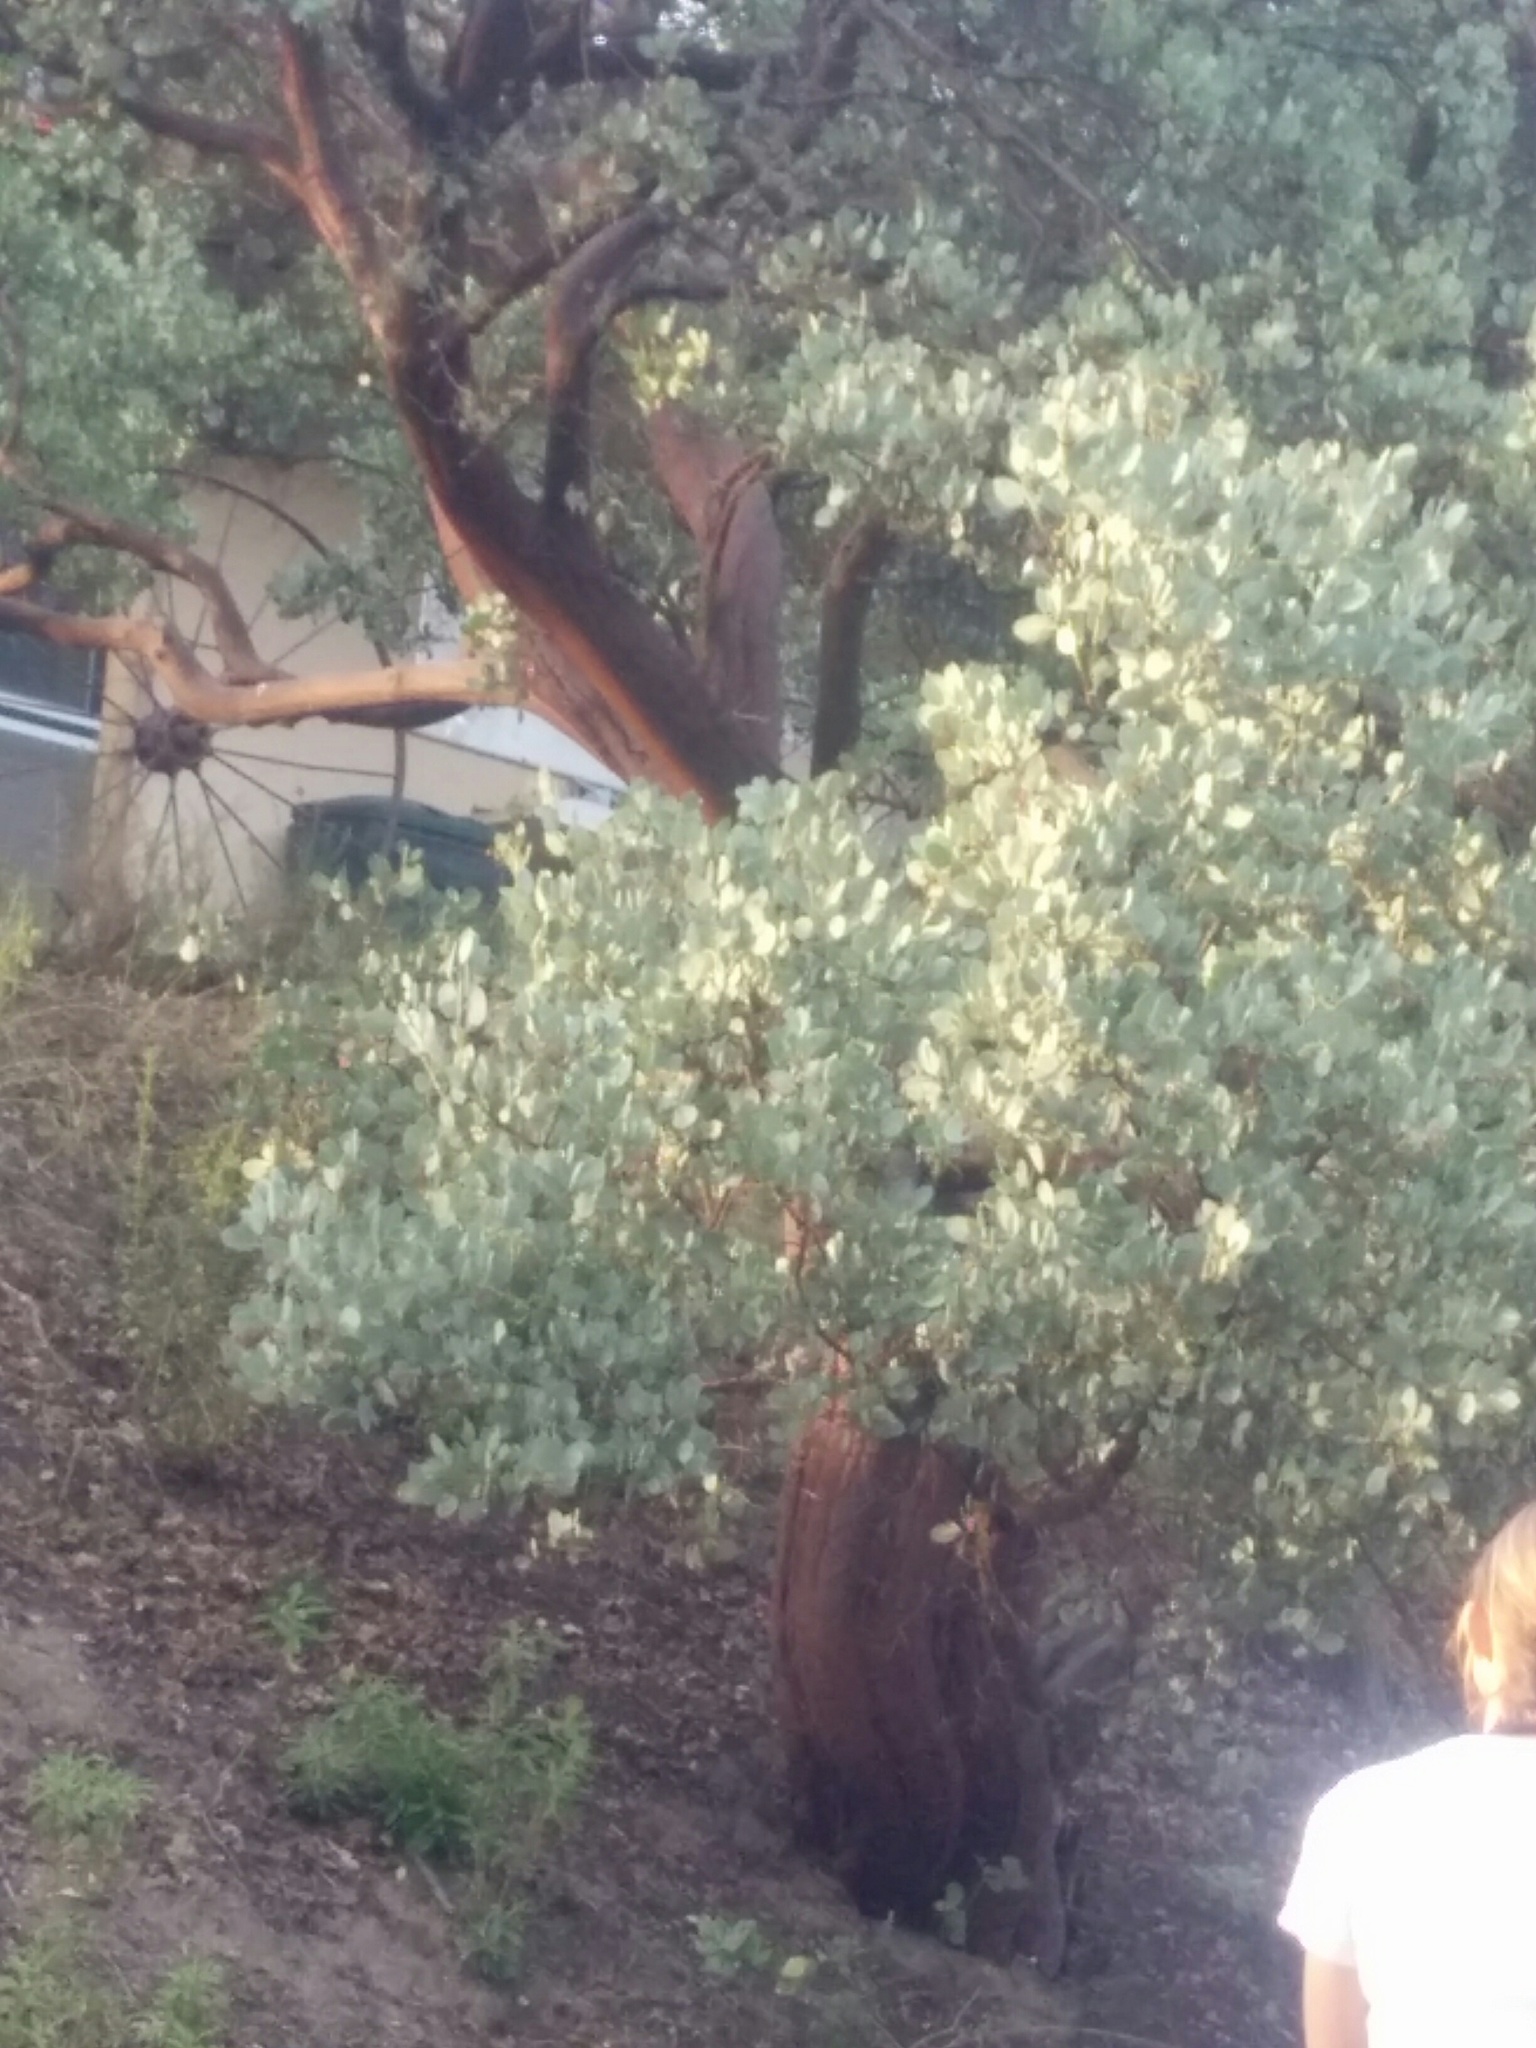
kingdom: Plantae
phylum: Tracheophyta
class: Magnoliopsida
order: Ericales
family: Ericaceae
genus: Arctostaphylos
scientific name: Arctostaphylos glauca
